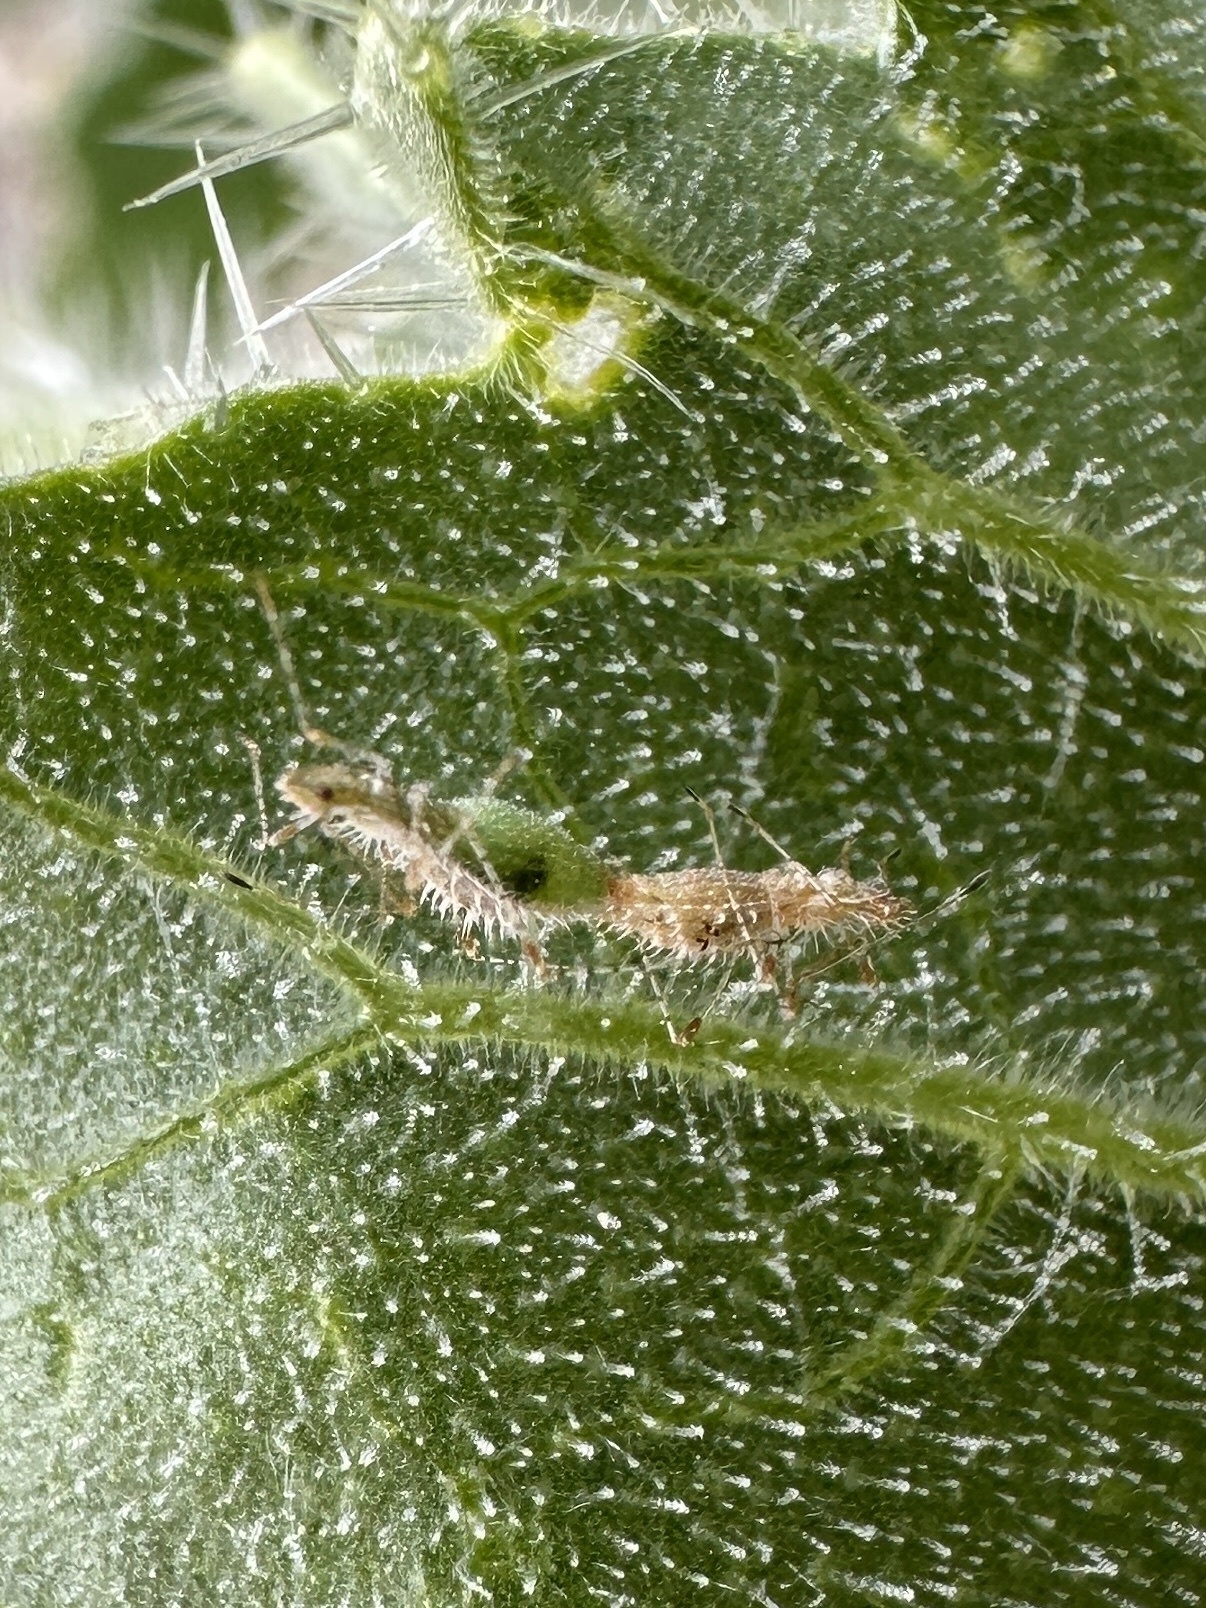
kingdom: Animalia
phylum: Arthropoda
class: Insecta
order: Hemiptera
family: Berytidae
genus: Hoplinus
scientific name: Hoplinus echinatus
